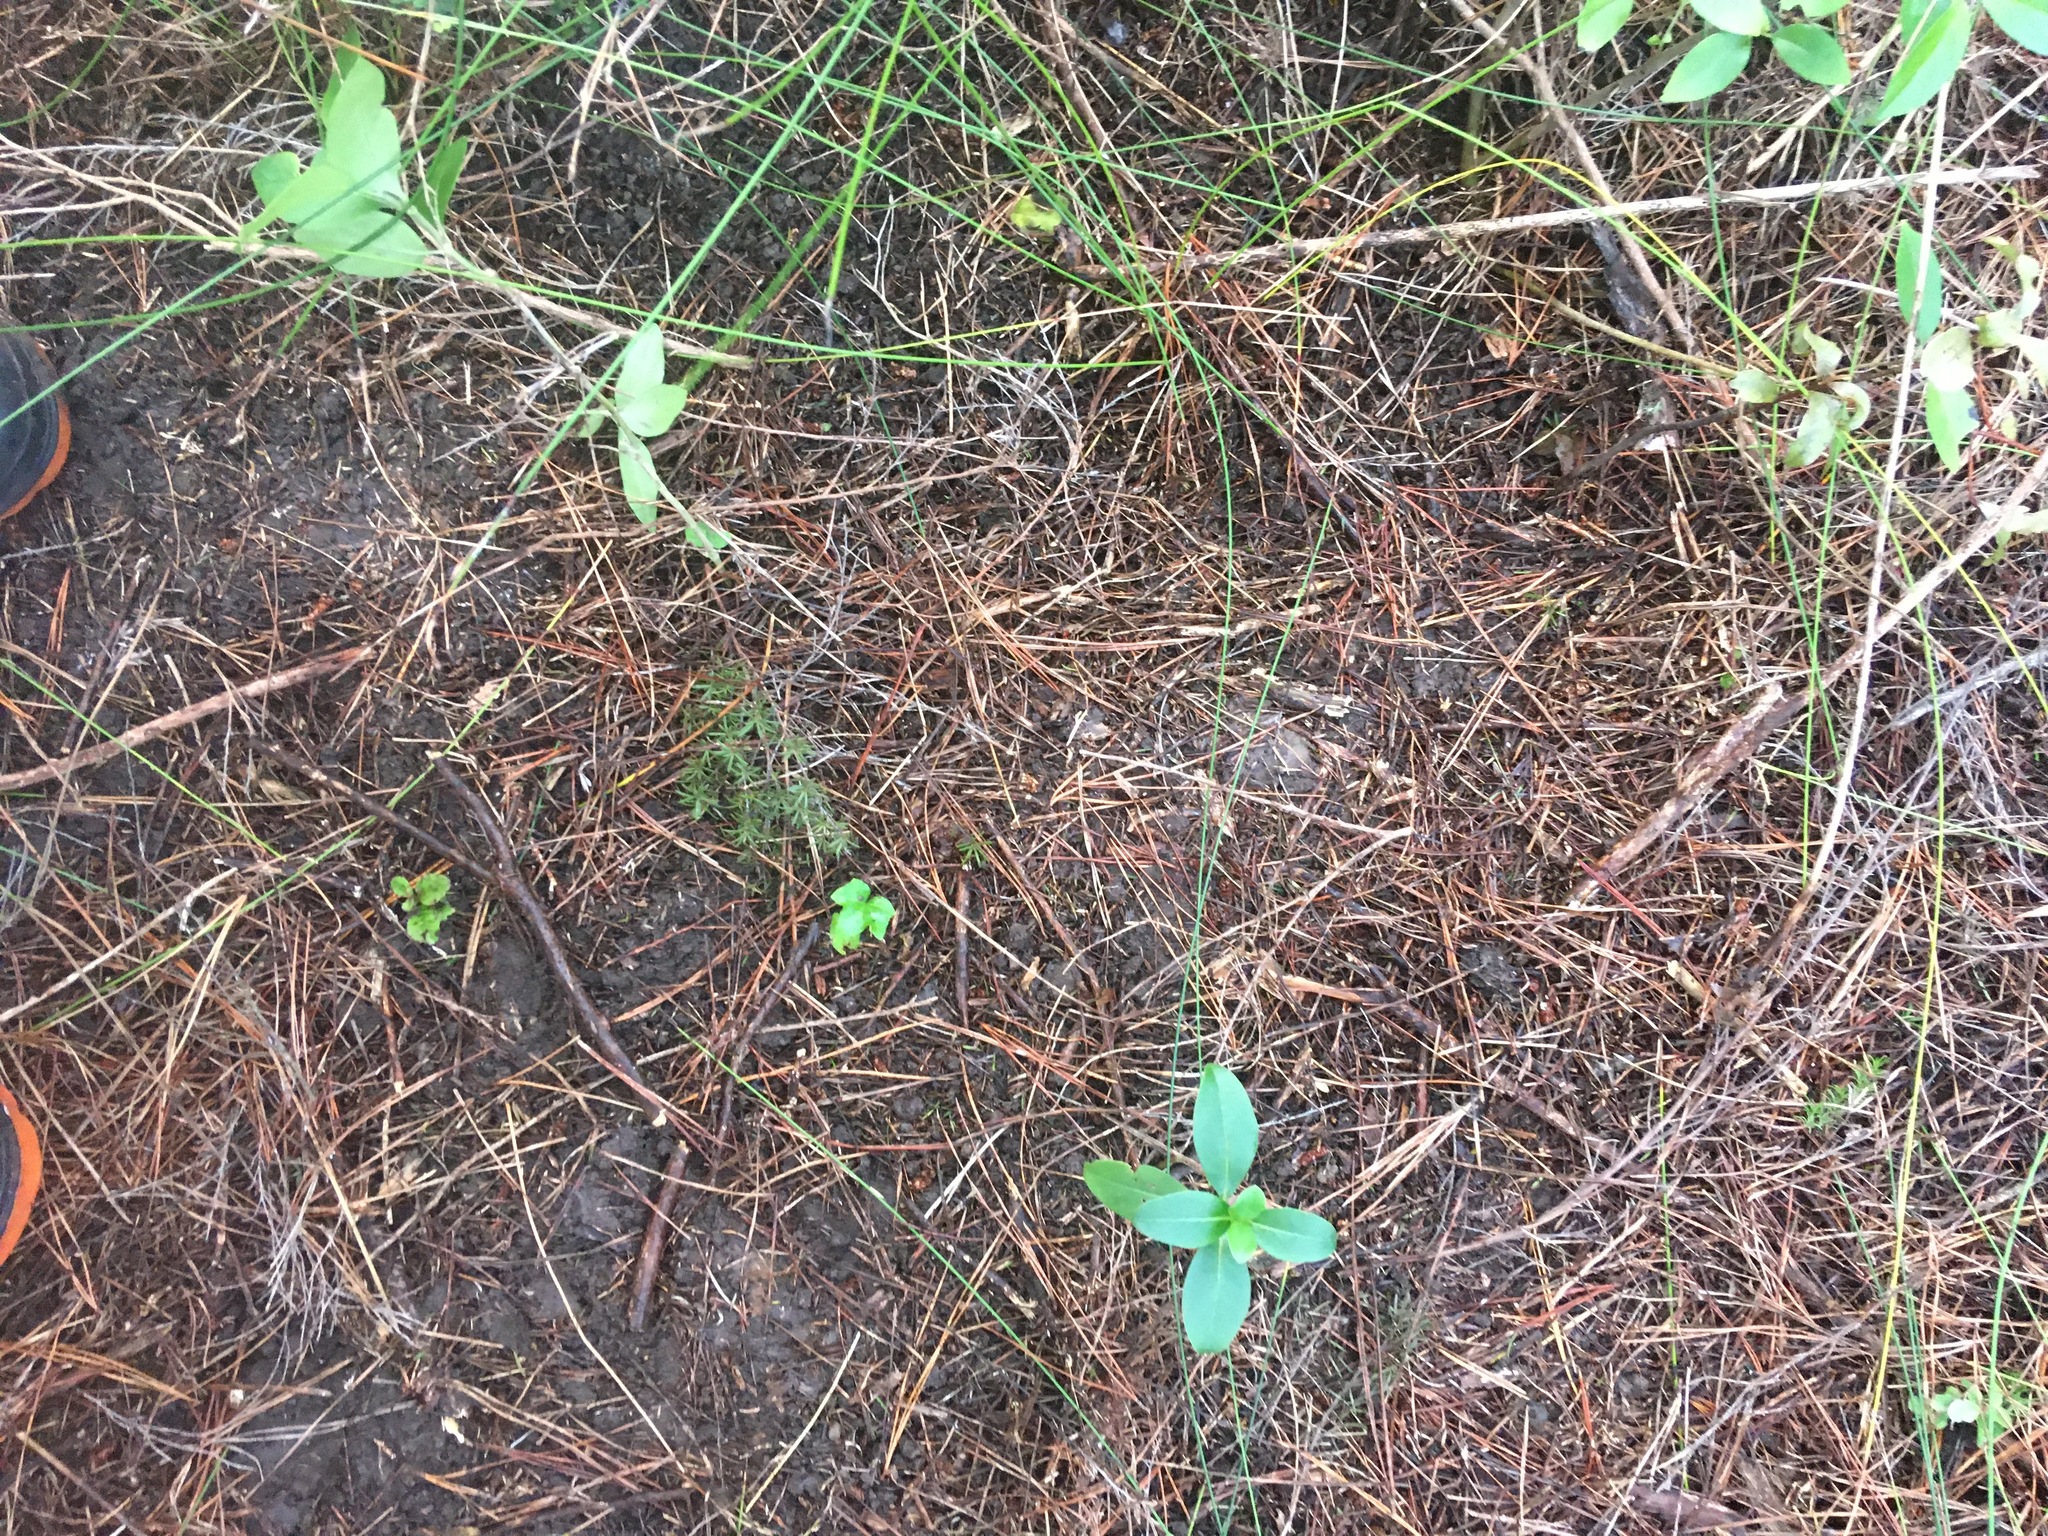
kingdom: Plantae
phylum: Tracheophyta
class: Magnoliopsida
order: Apiales
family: Araliaceae
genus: Hedera
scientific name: Hedera helix
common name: Ivy
